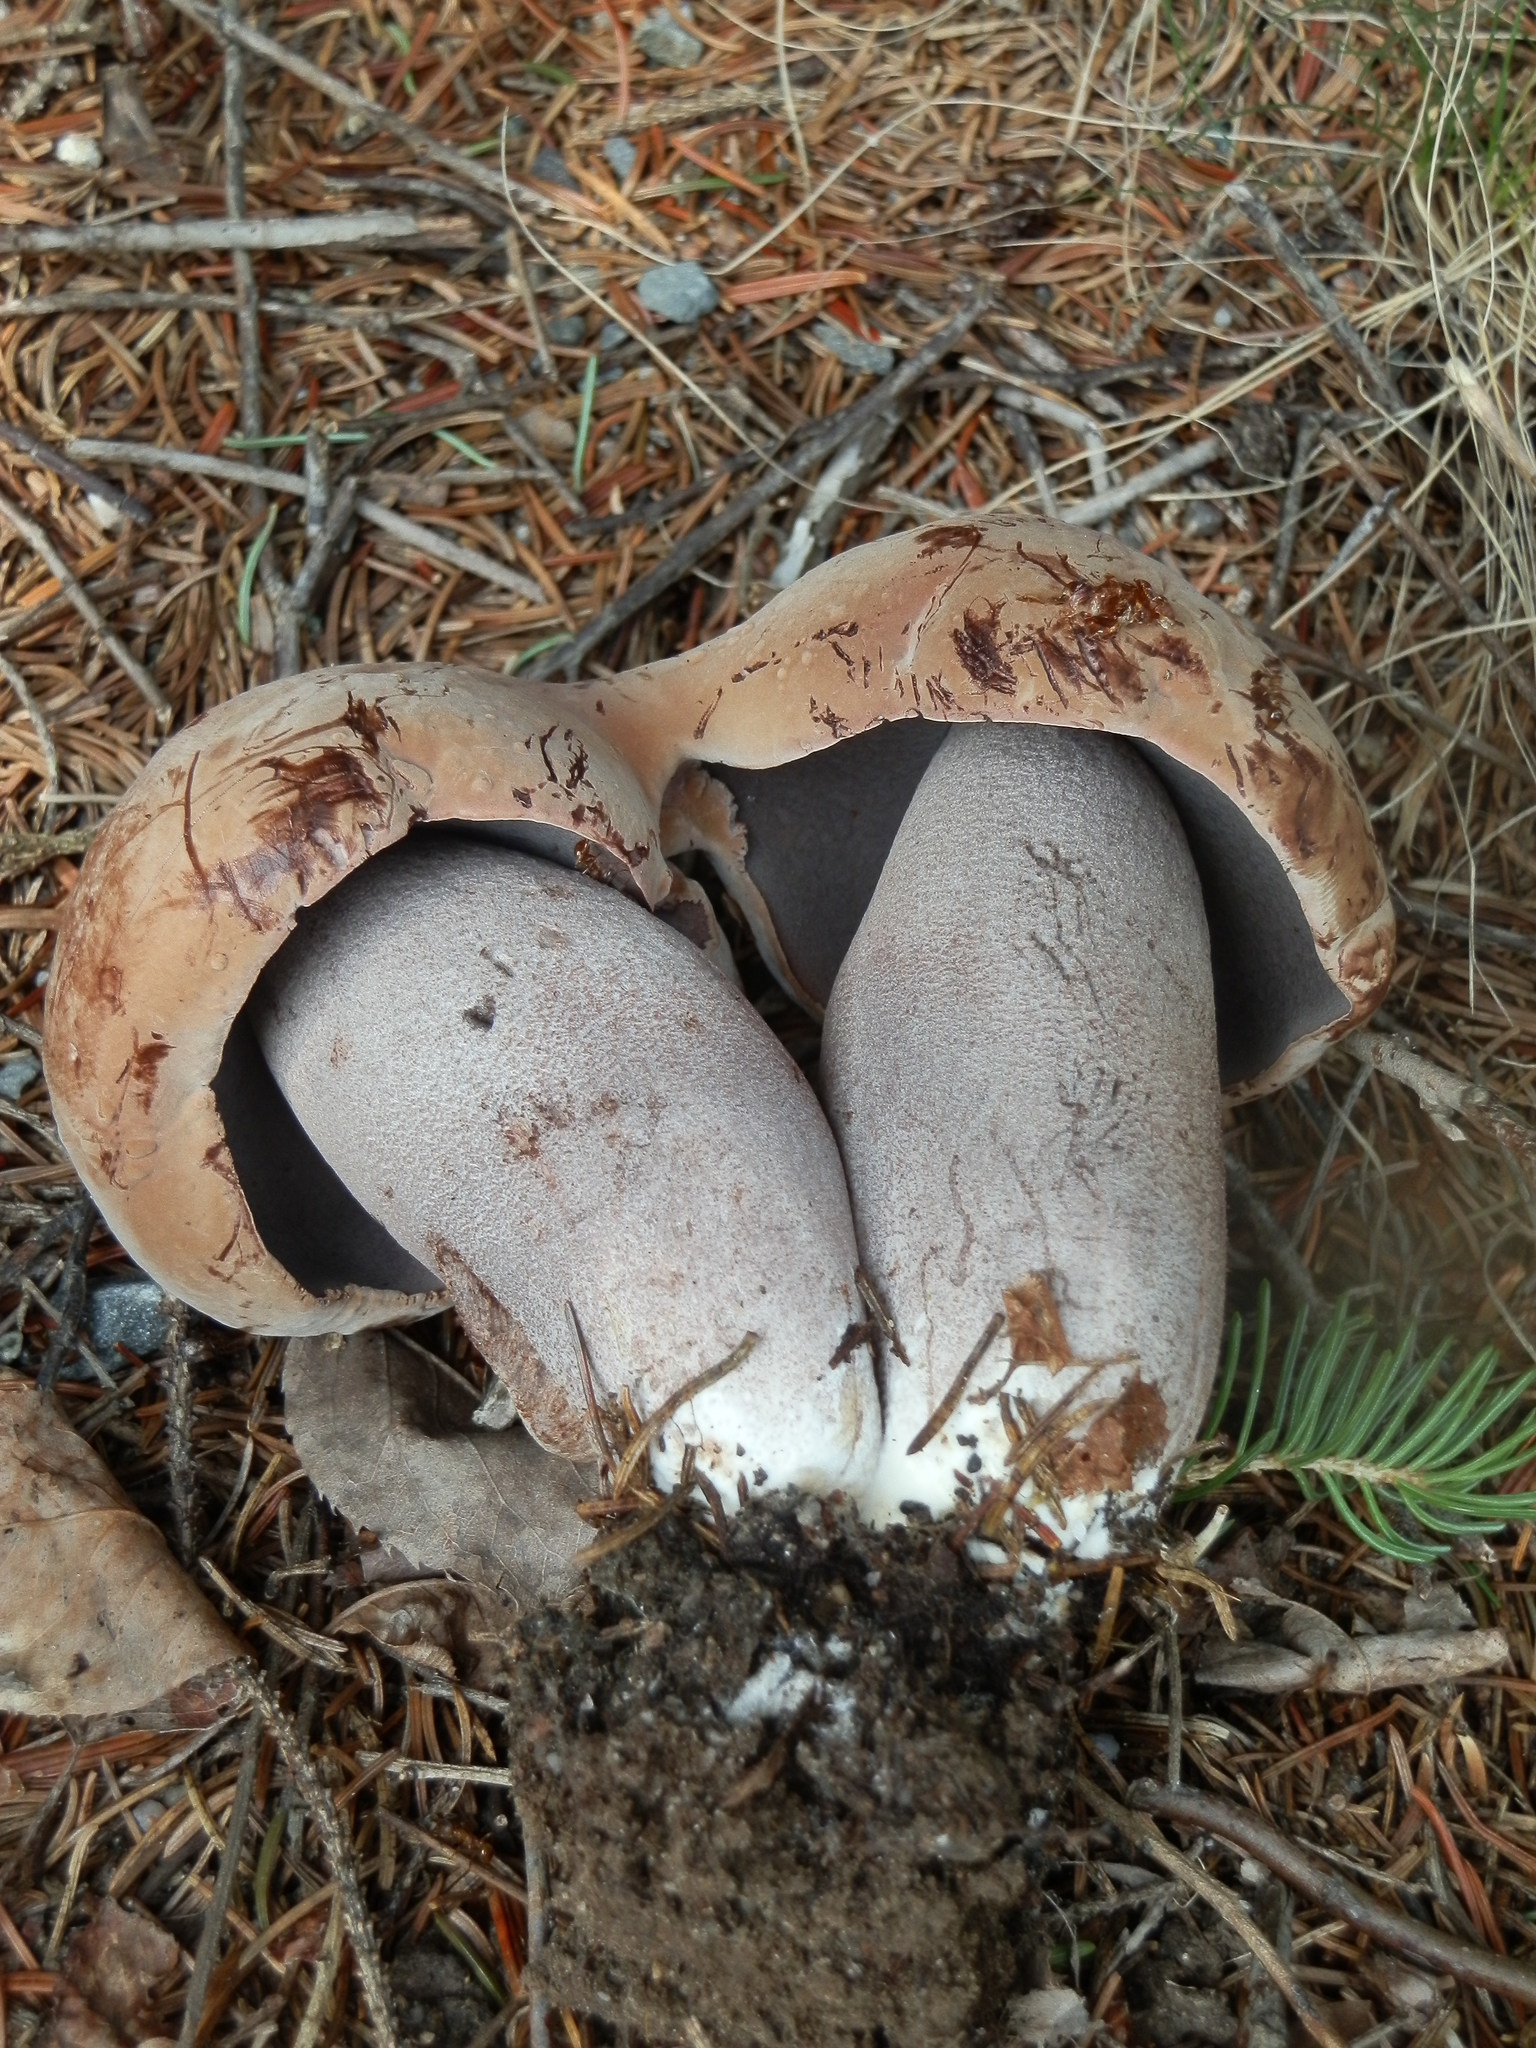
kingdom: Fungi
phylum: Basidiomycota
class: Agaricomycetes
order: Boletales
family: Boletaceae
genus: Sutorius
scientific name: Sutorius eximius
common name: Lilac-brown bolete
